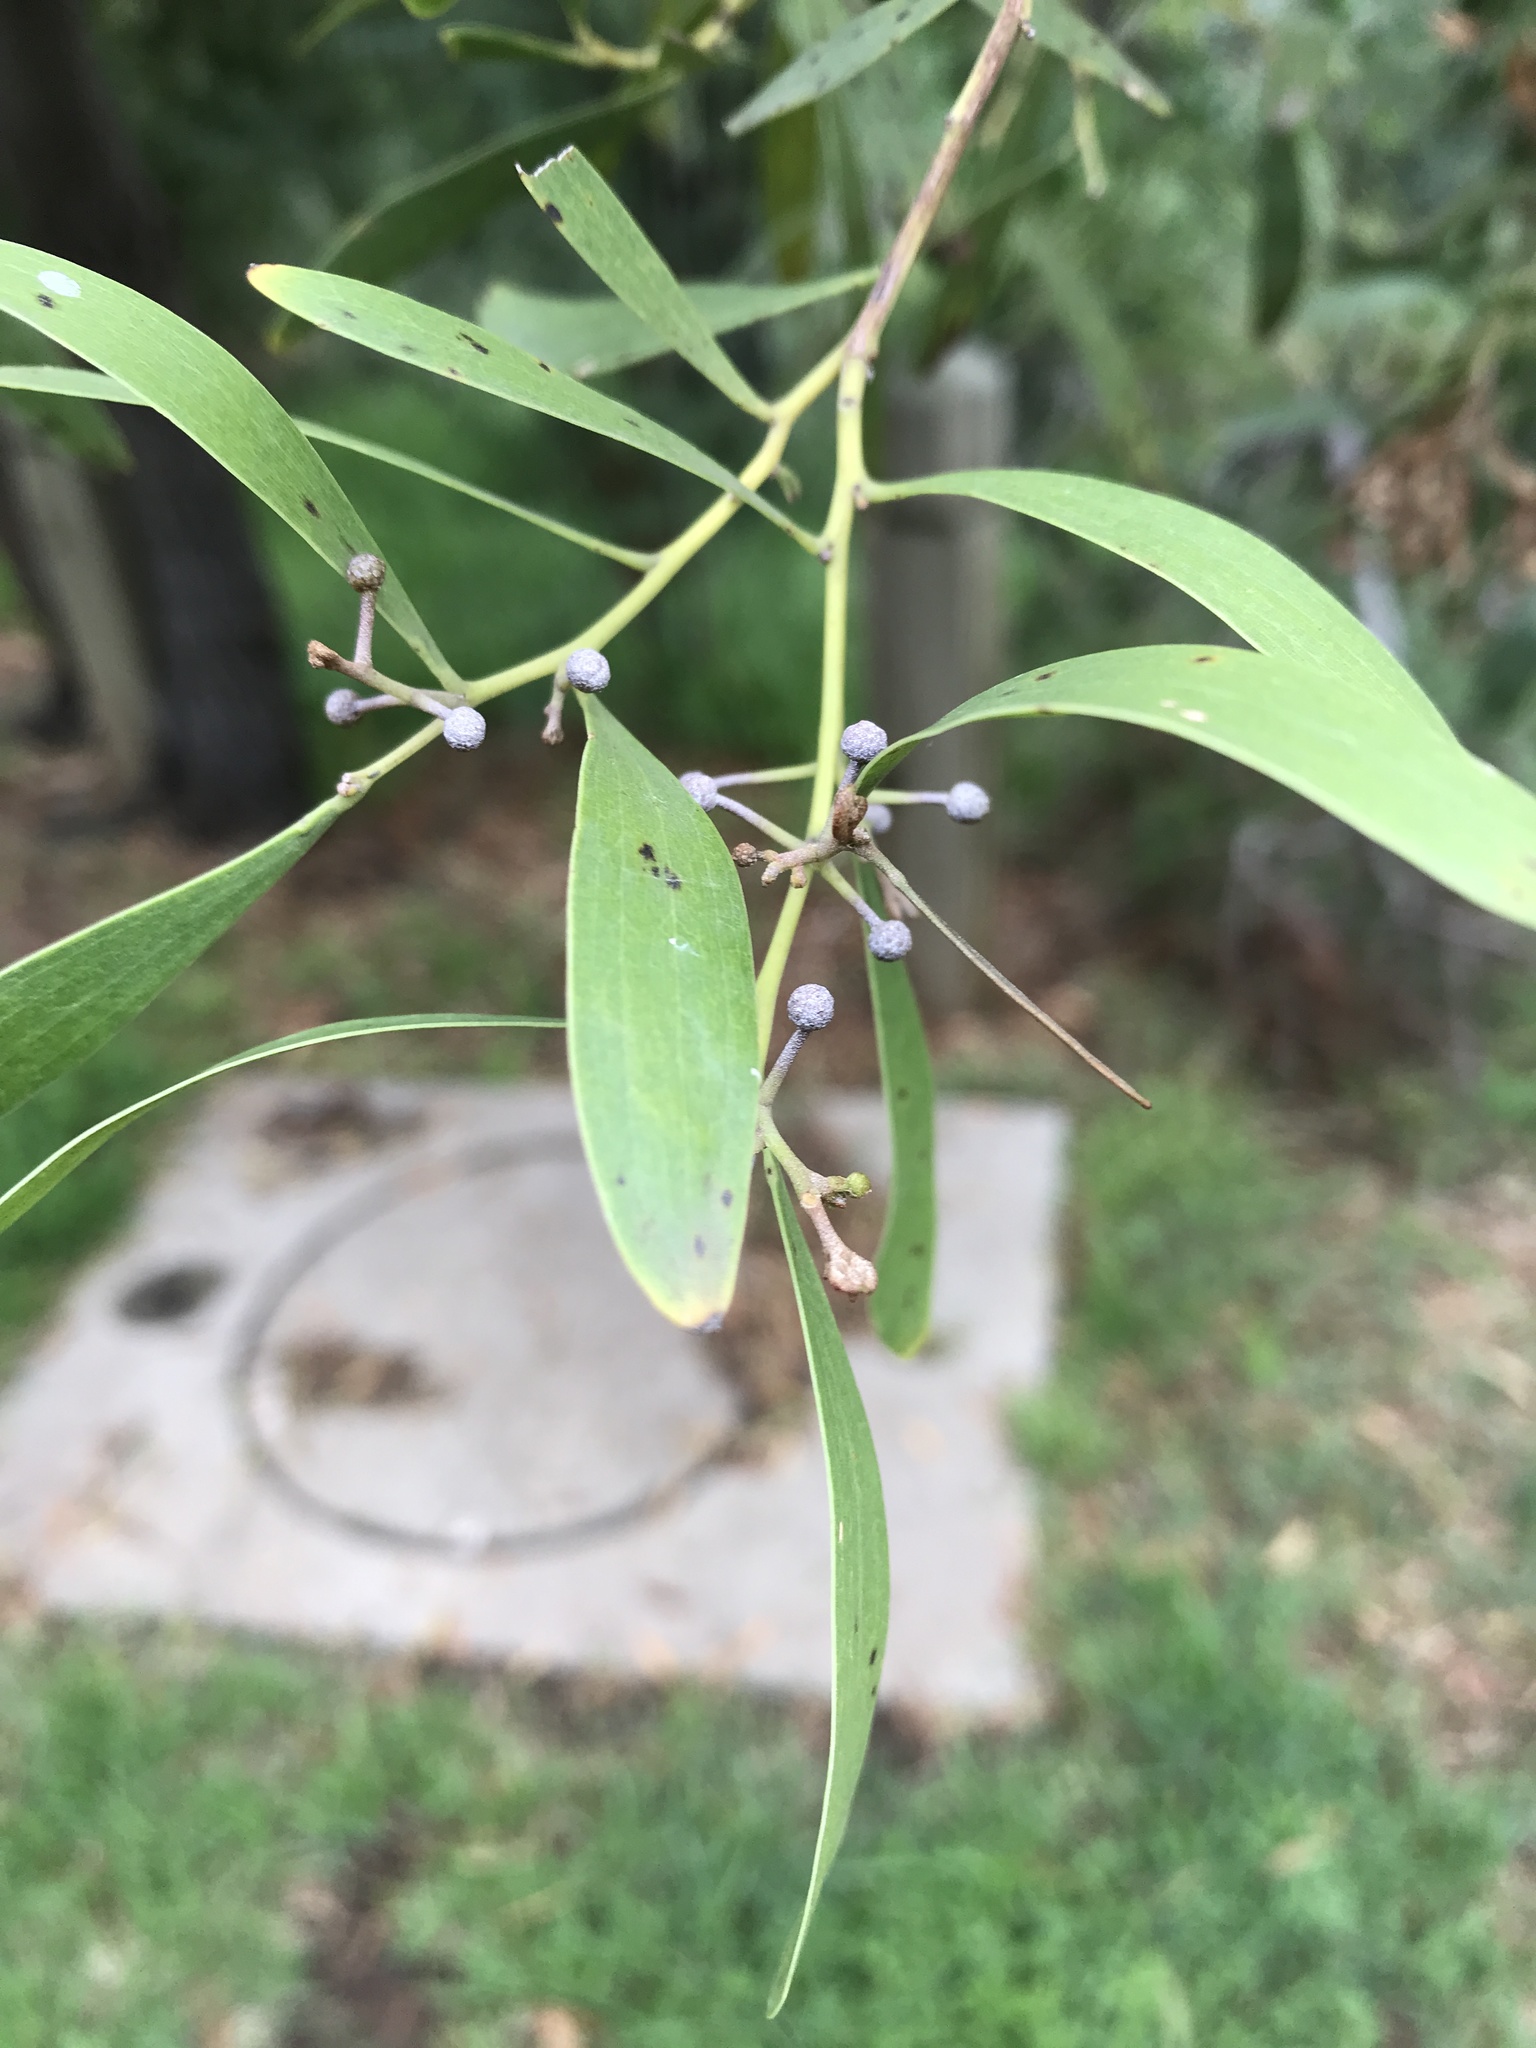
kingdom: Plantae
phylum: Tracheophyta
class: Magnoliopsida
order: Fabales
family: Fabaceae
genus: Acacia
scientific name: Acacia melanoxylon
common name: Blackwood
